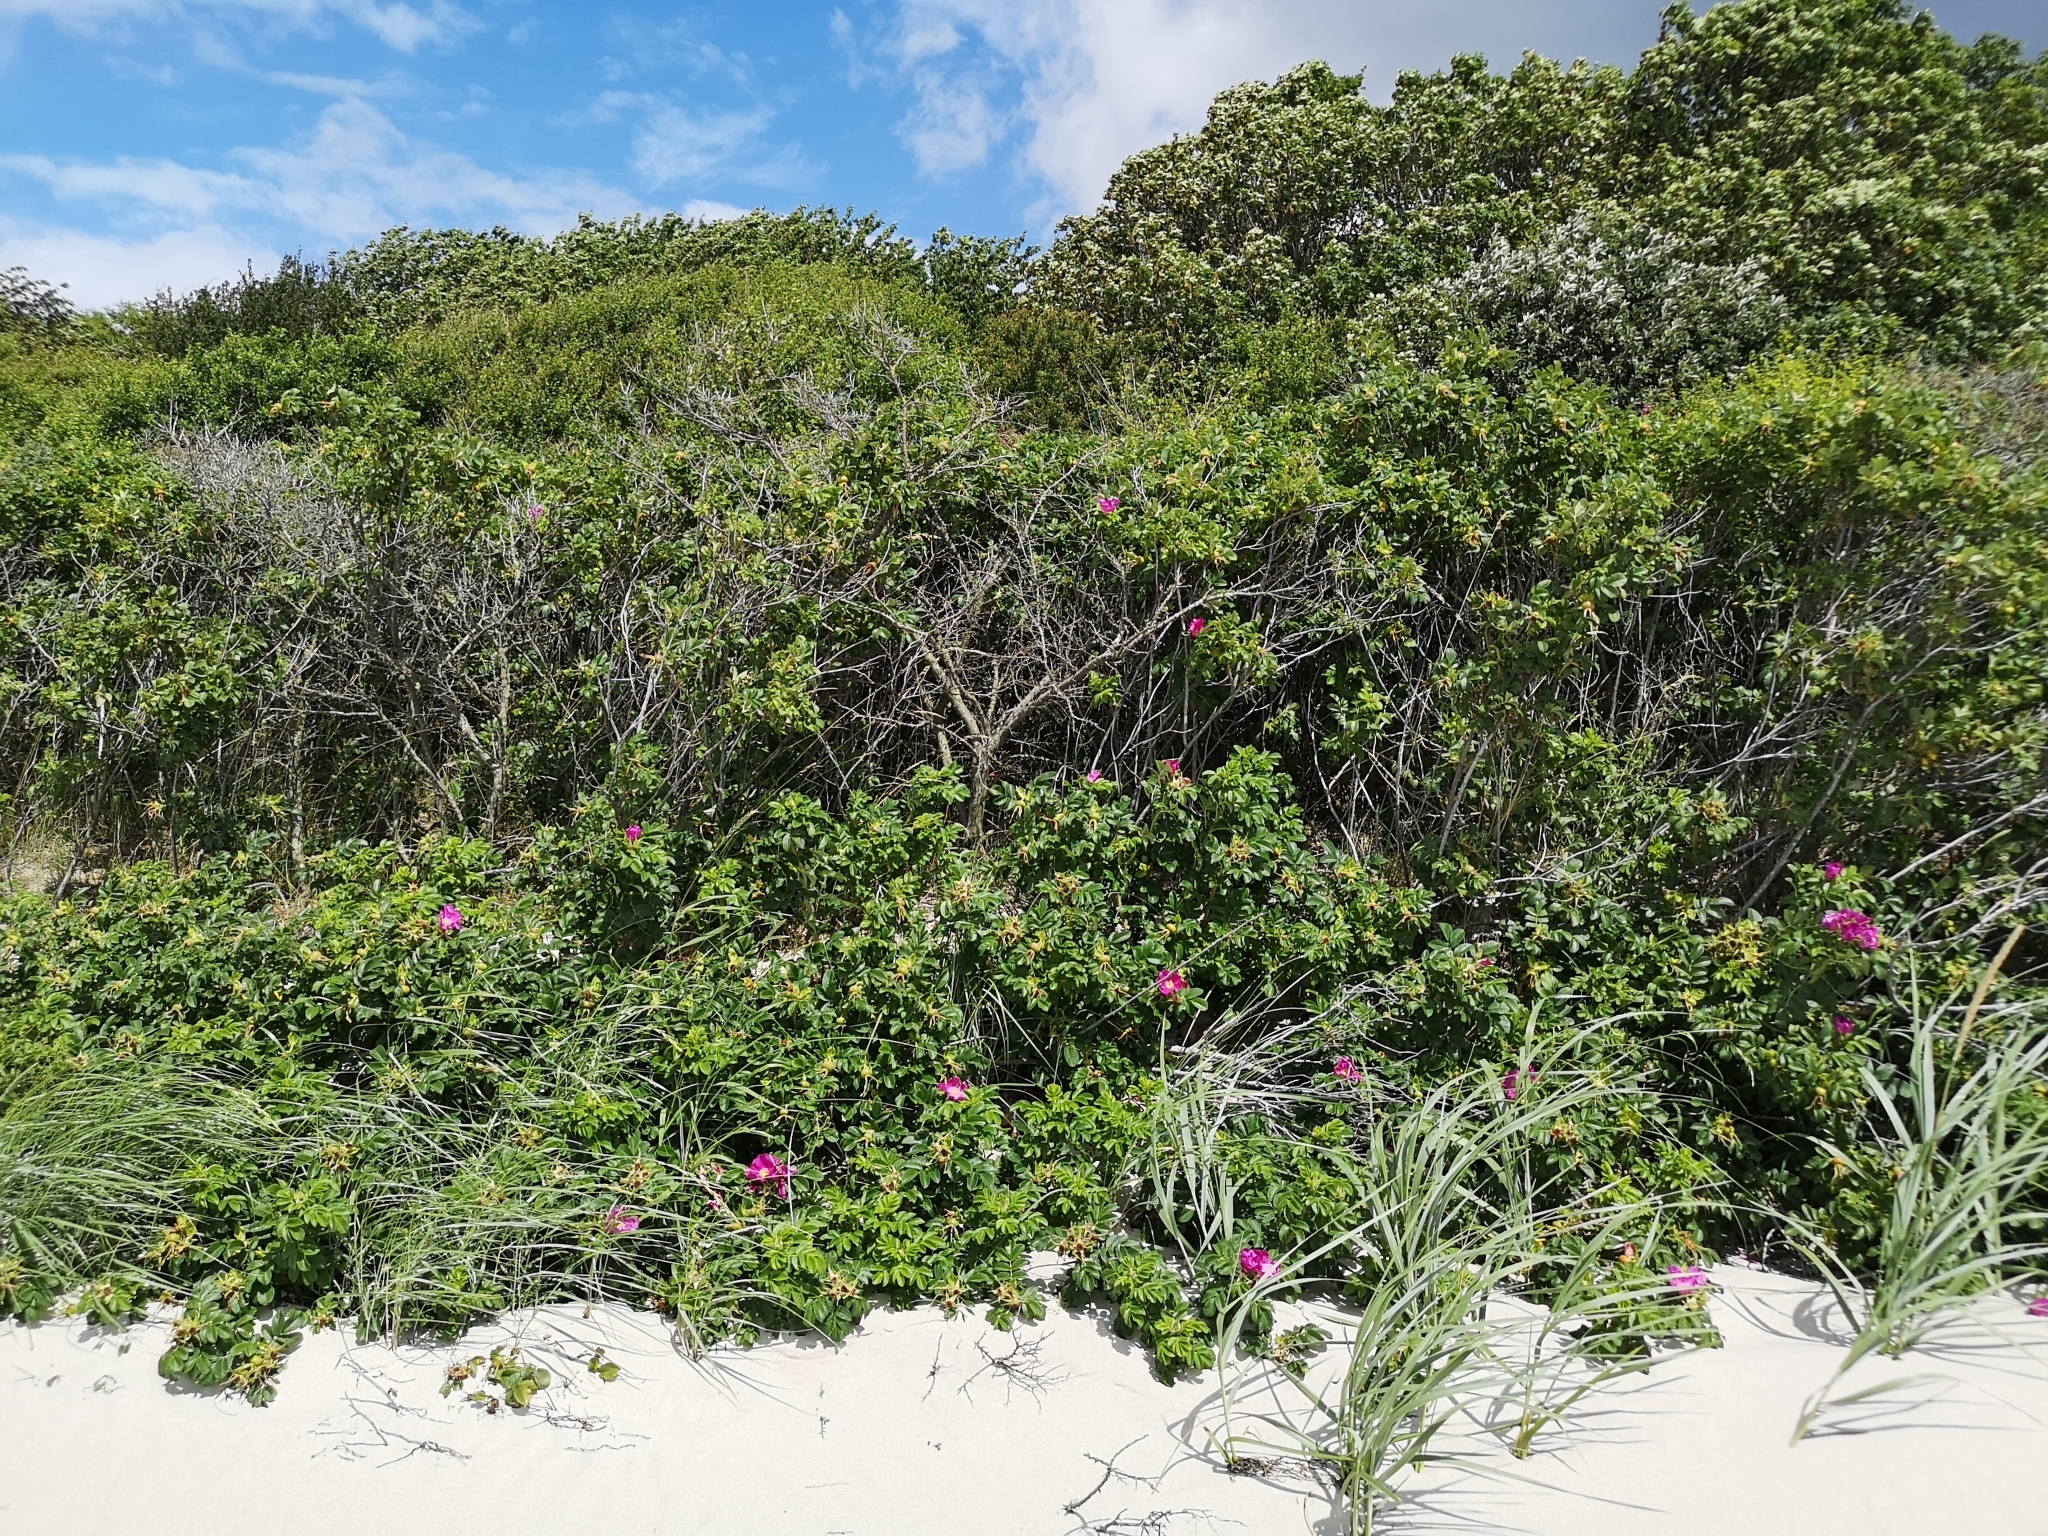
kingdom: Plantae
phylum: Tracheophyta
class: Magnoliopsida
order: Rosales
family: Rosaceae
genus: Rosa
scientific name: Rosa rugosa
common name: Japanese rose
